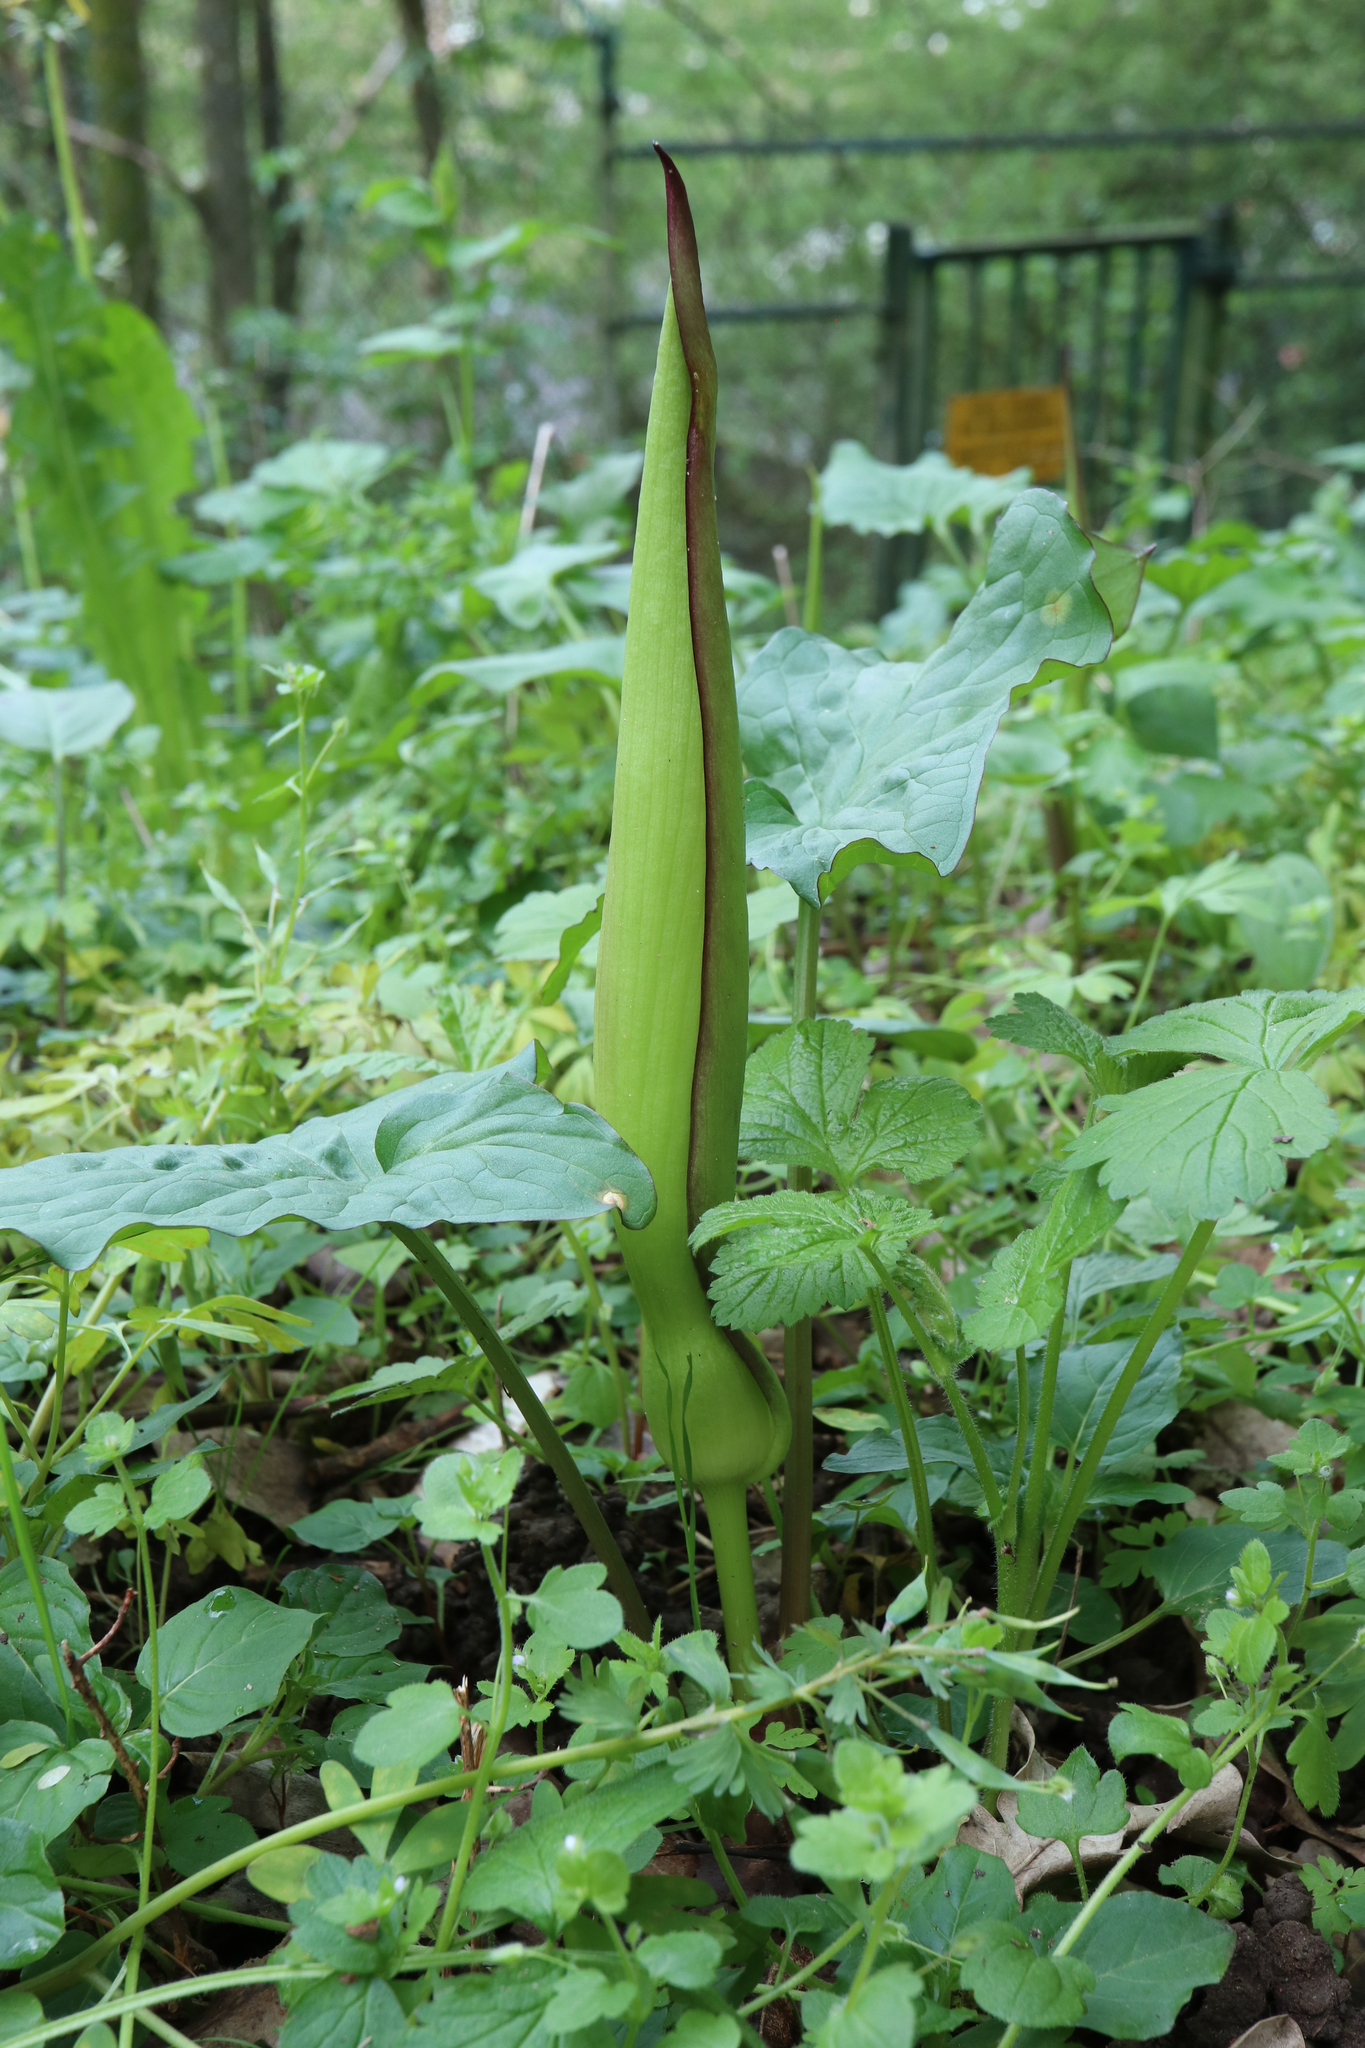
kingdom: Plantae
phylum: Tracheophyta
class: Liliopsida
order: Alismatales
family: Araceae
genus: Arum
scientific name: Arum maculatum
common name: Lords-and-ladies
